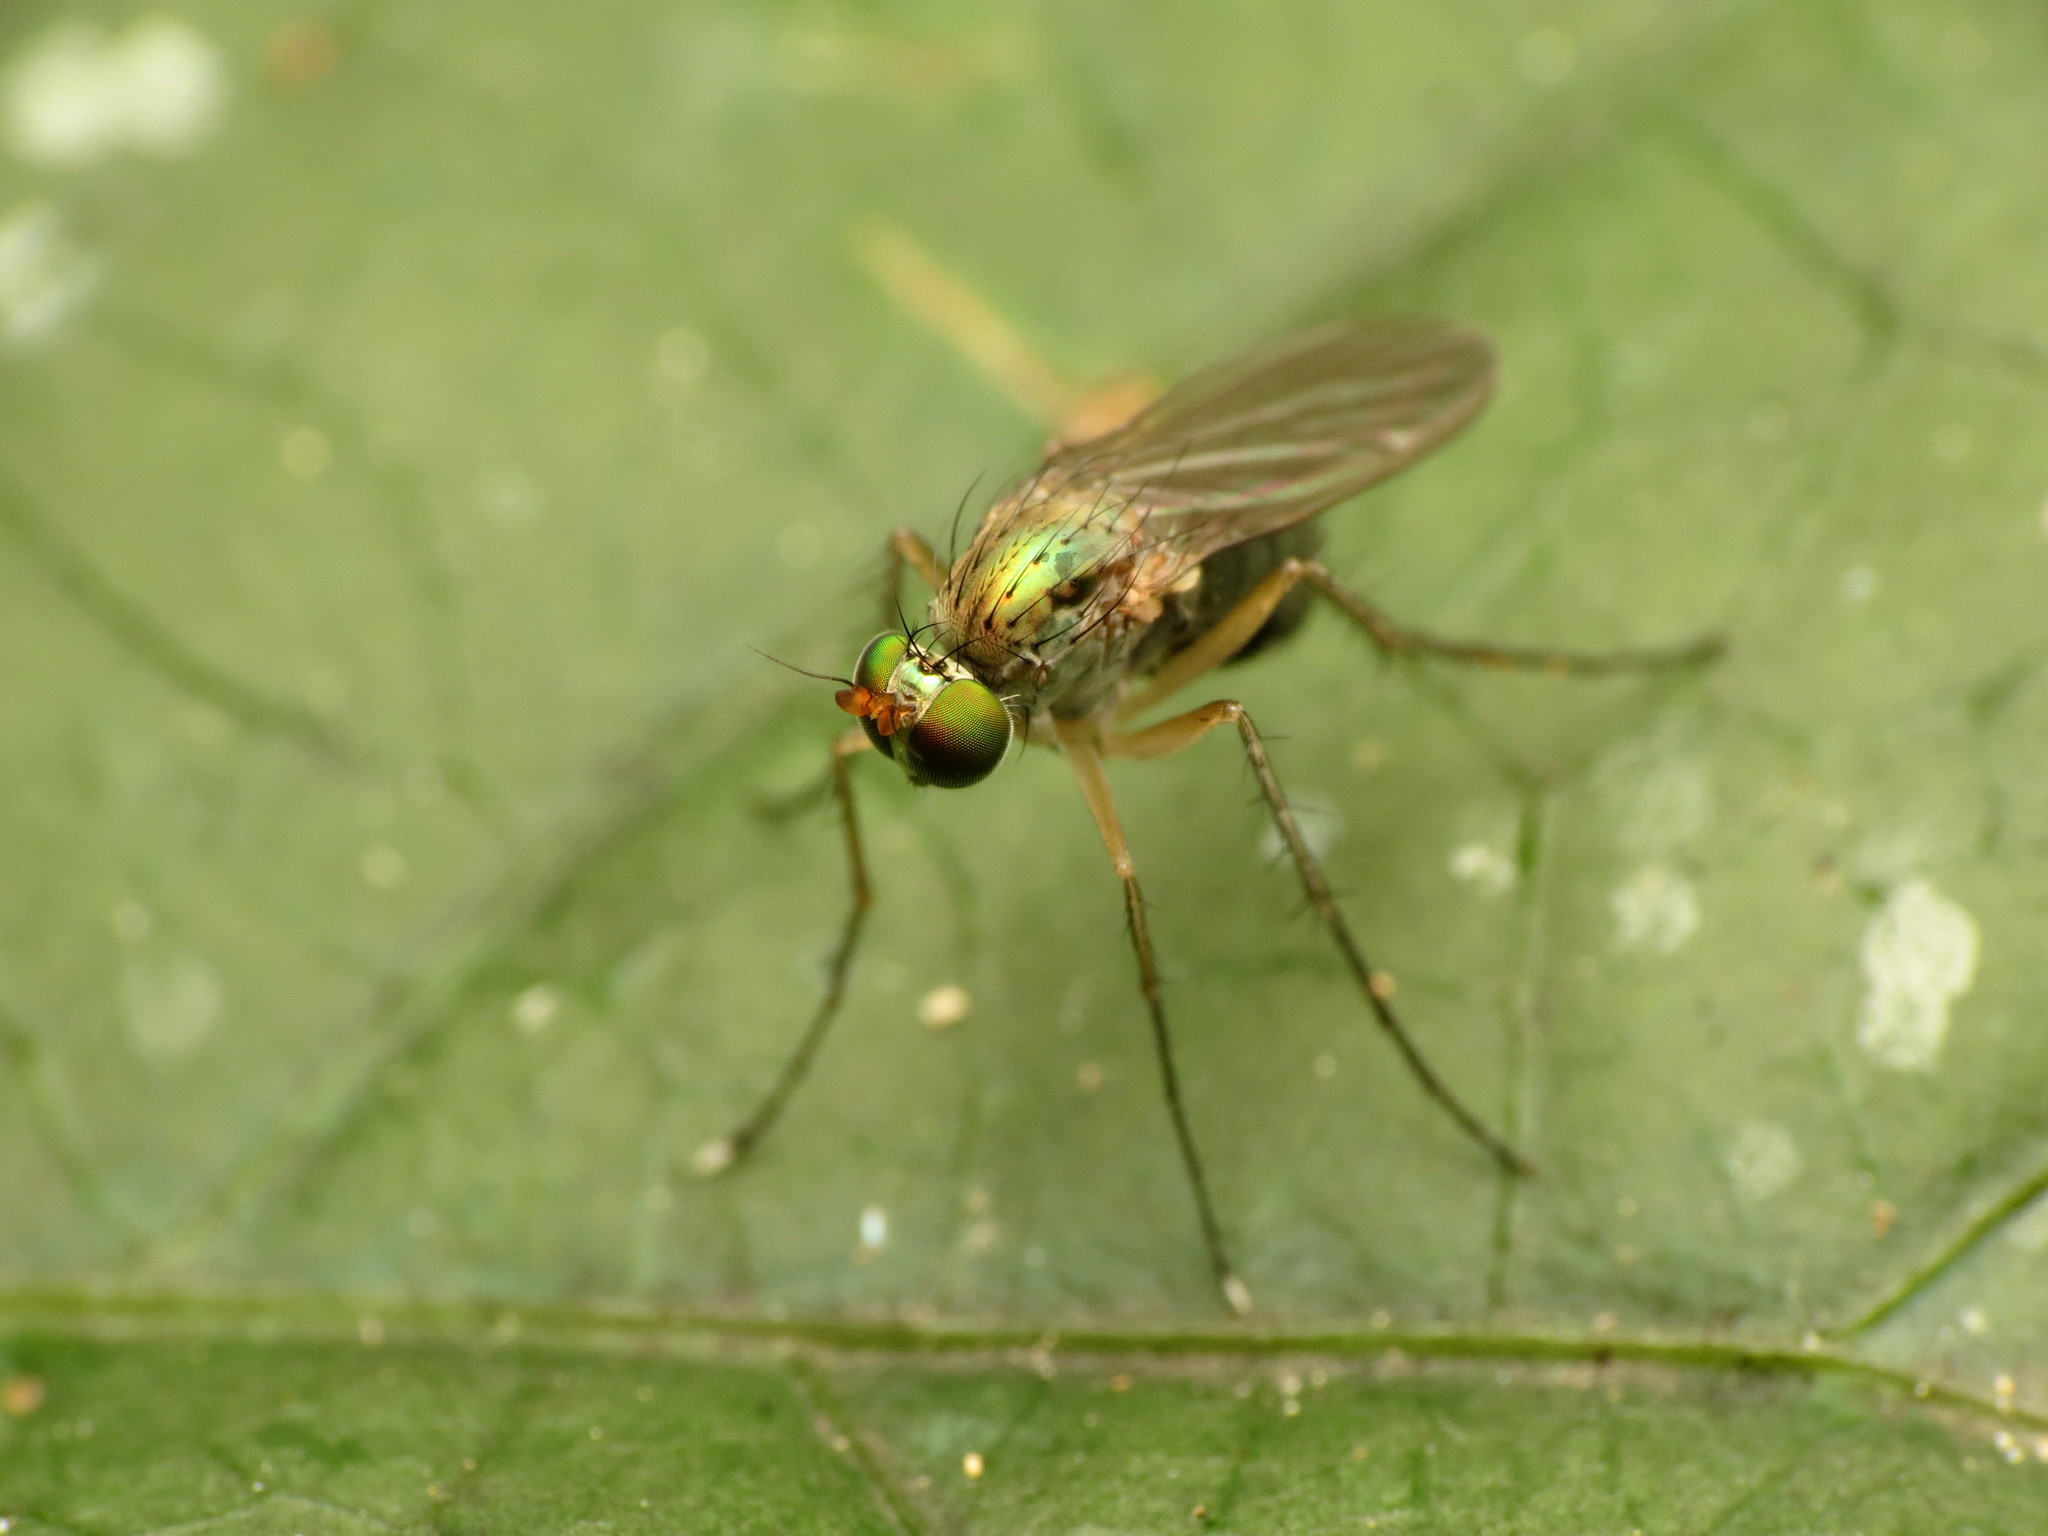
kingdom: Animalia
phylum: Arthropoda
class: Insecta
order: Diptera
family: Dolichopodidae
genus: Dolichopus
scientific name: Dolichopus funditor
